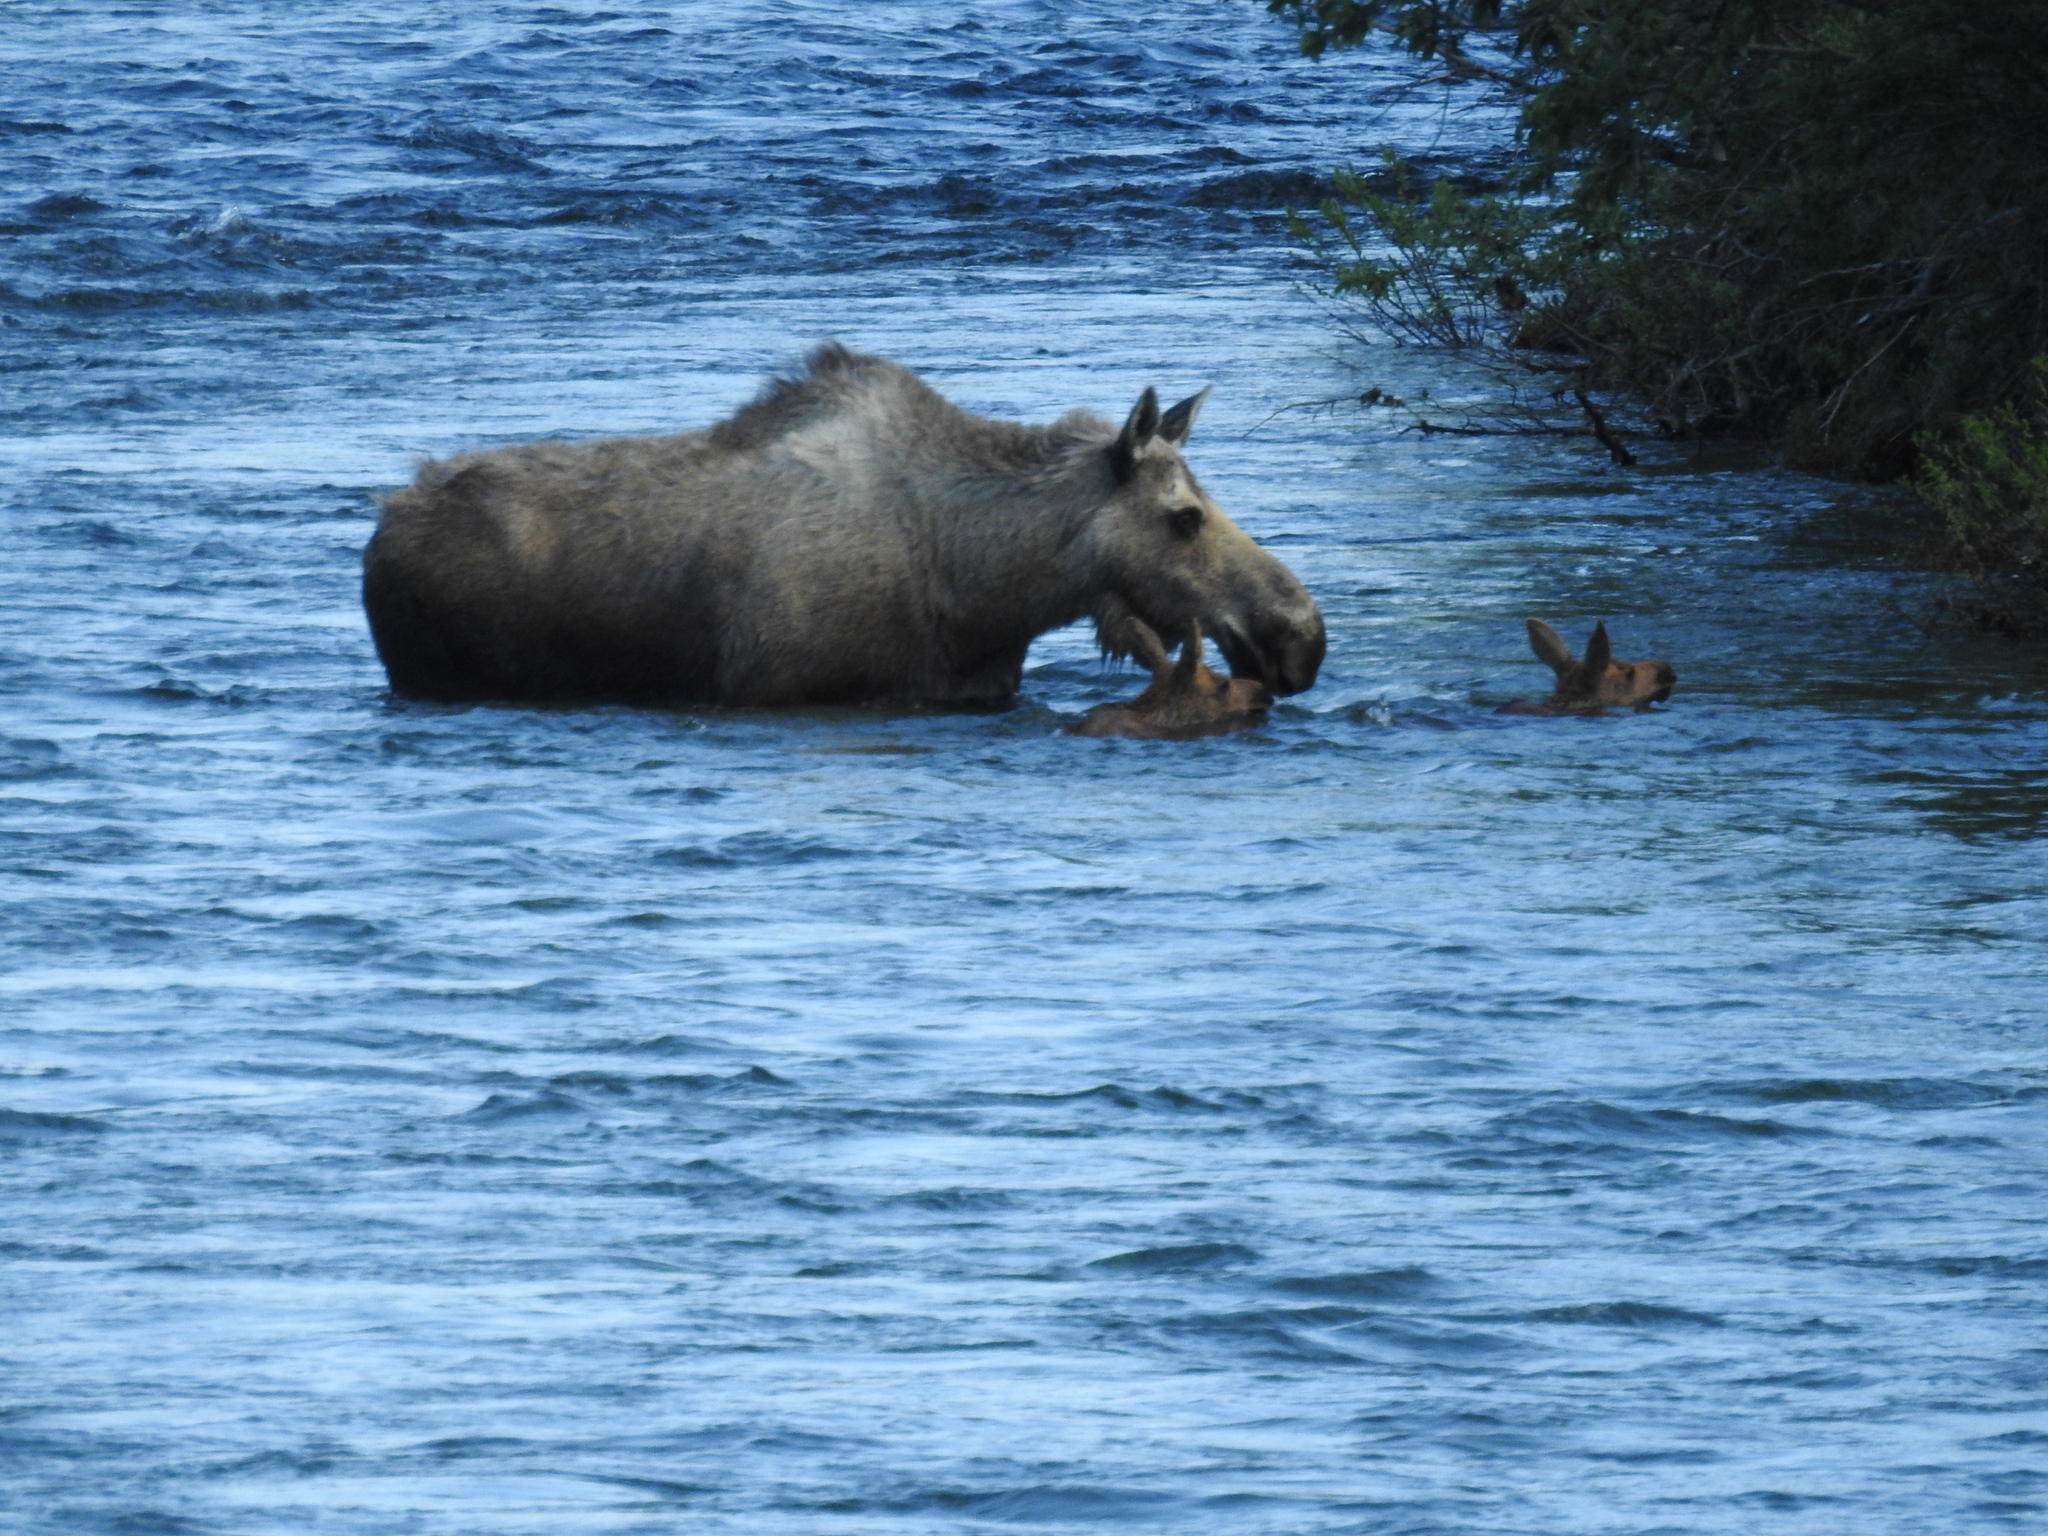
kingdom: Animalia
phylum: Chordata
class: Mammalia
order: Artiodactyla
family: Cervidae
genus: Alces
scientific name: Alces alces
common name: Moose
